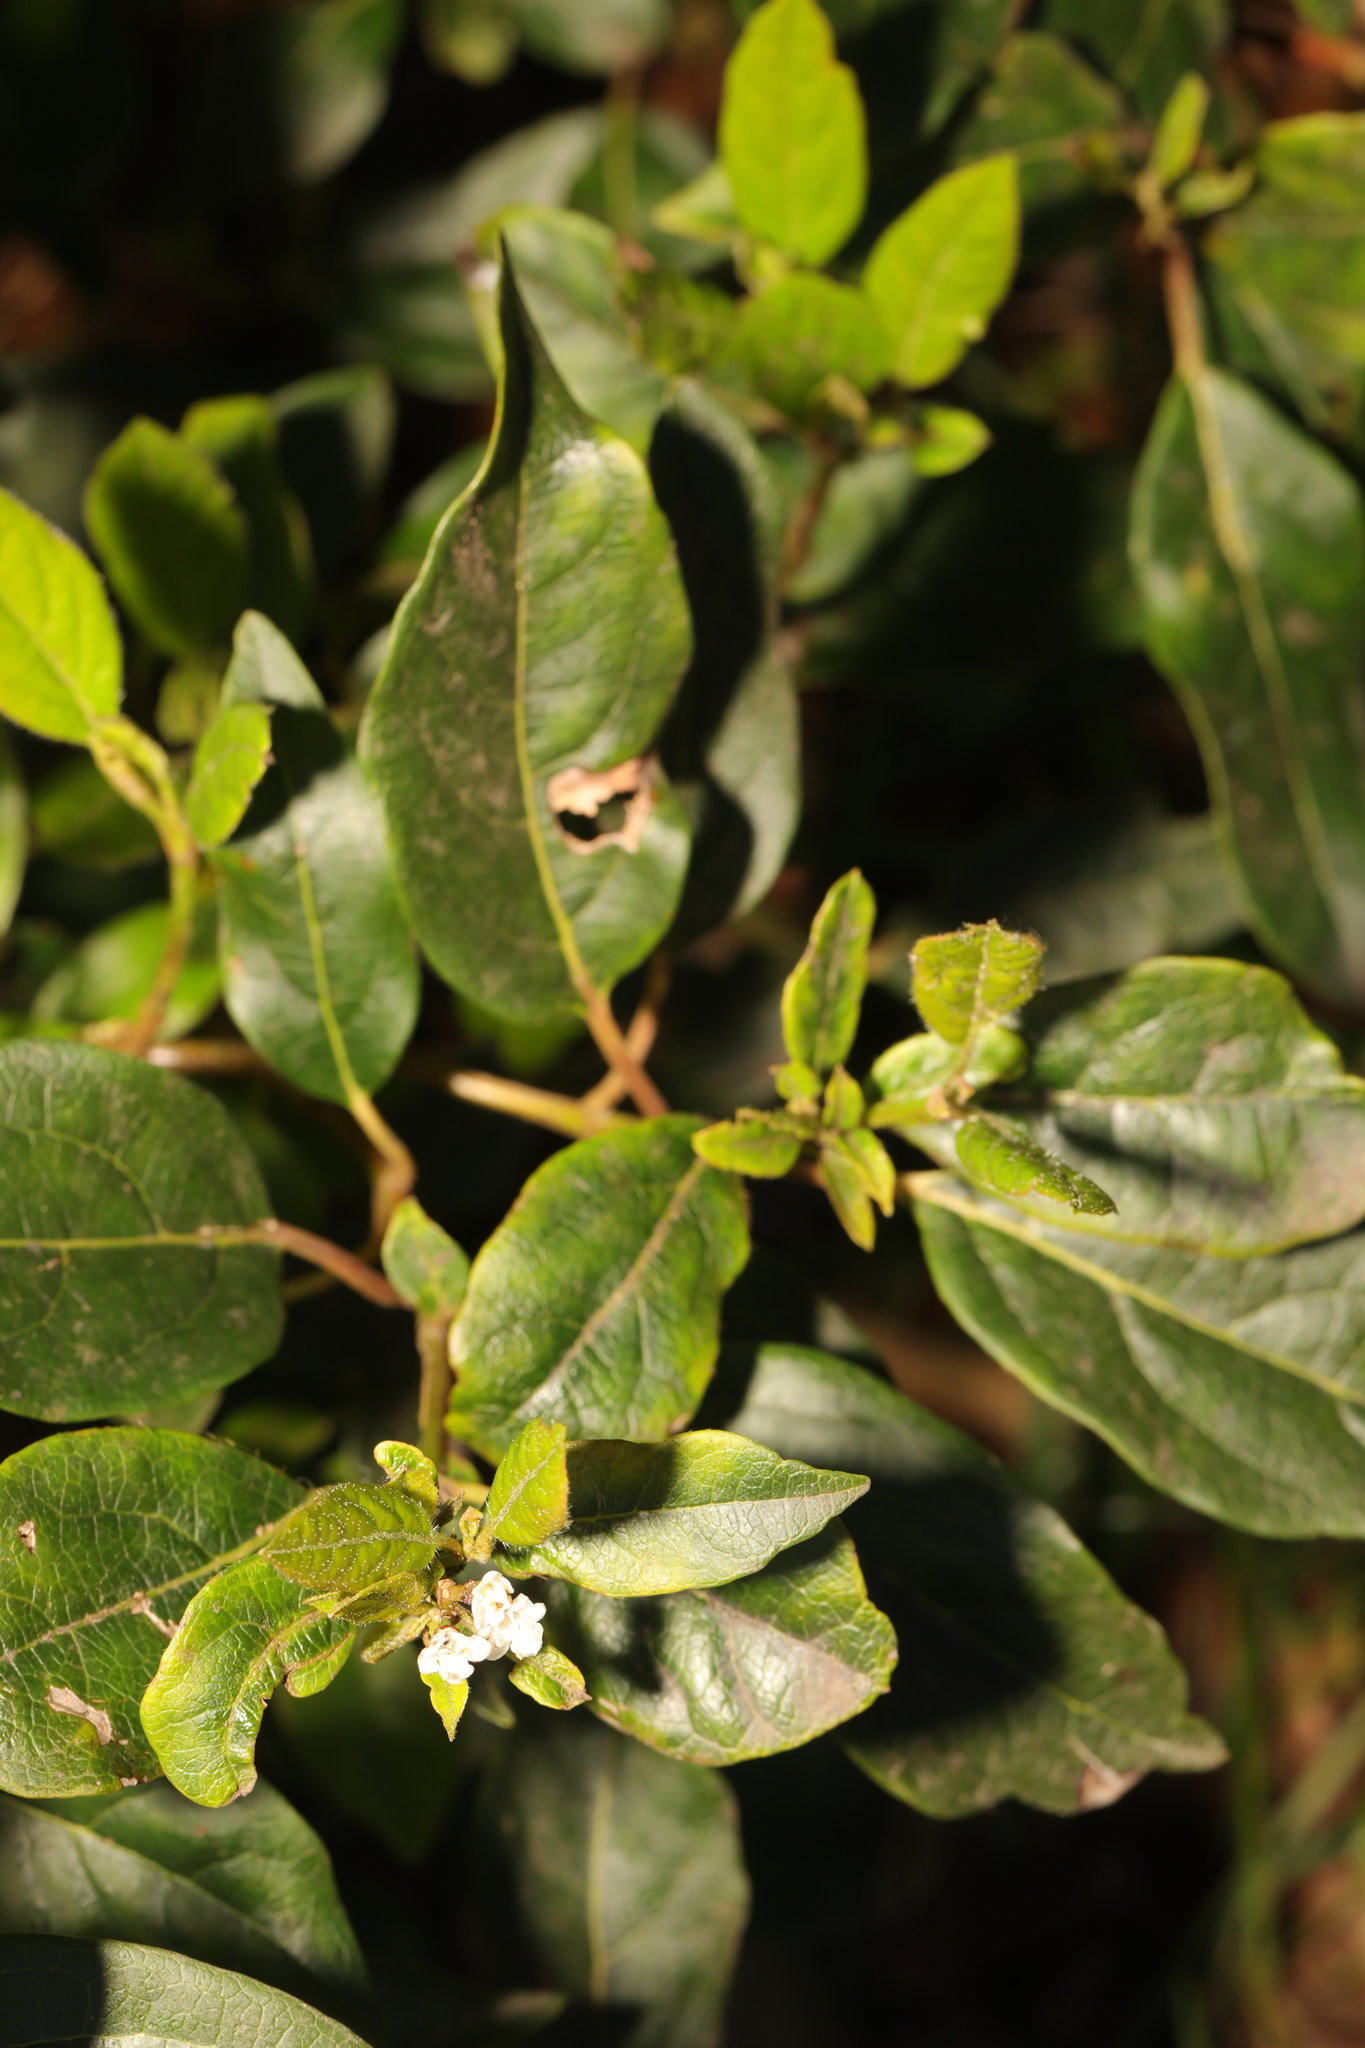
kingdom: Plantae
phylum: Tracheophyta
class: Magnoliopsida
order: Dipsacales
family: Viburnaceae
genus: Viburnum
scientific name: Viburnum tinus
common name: Laurustinus
